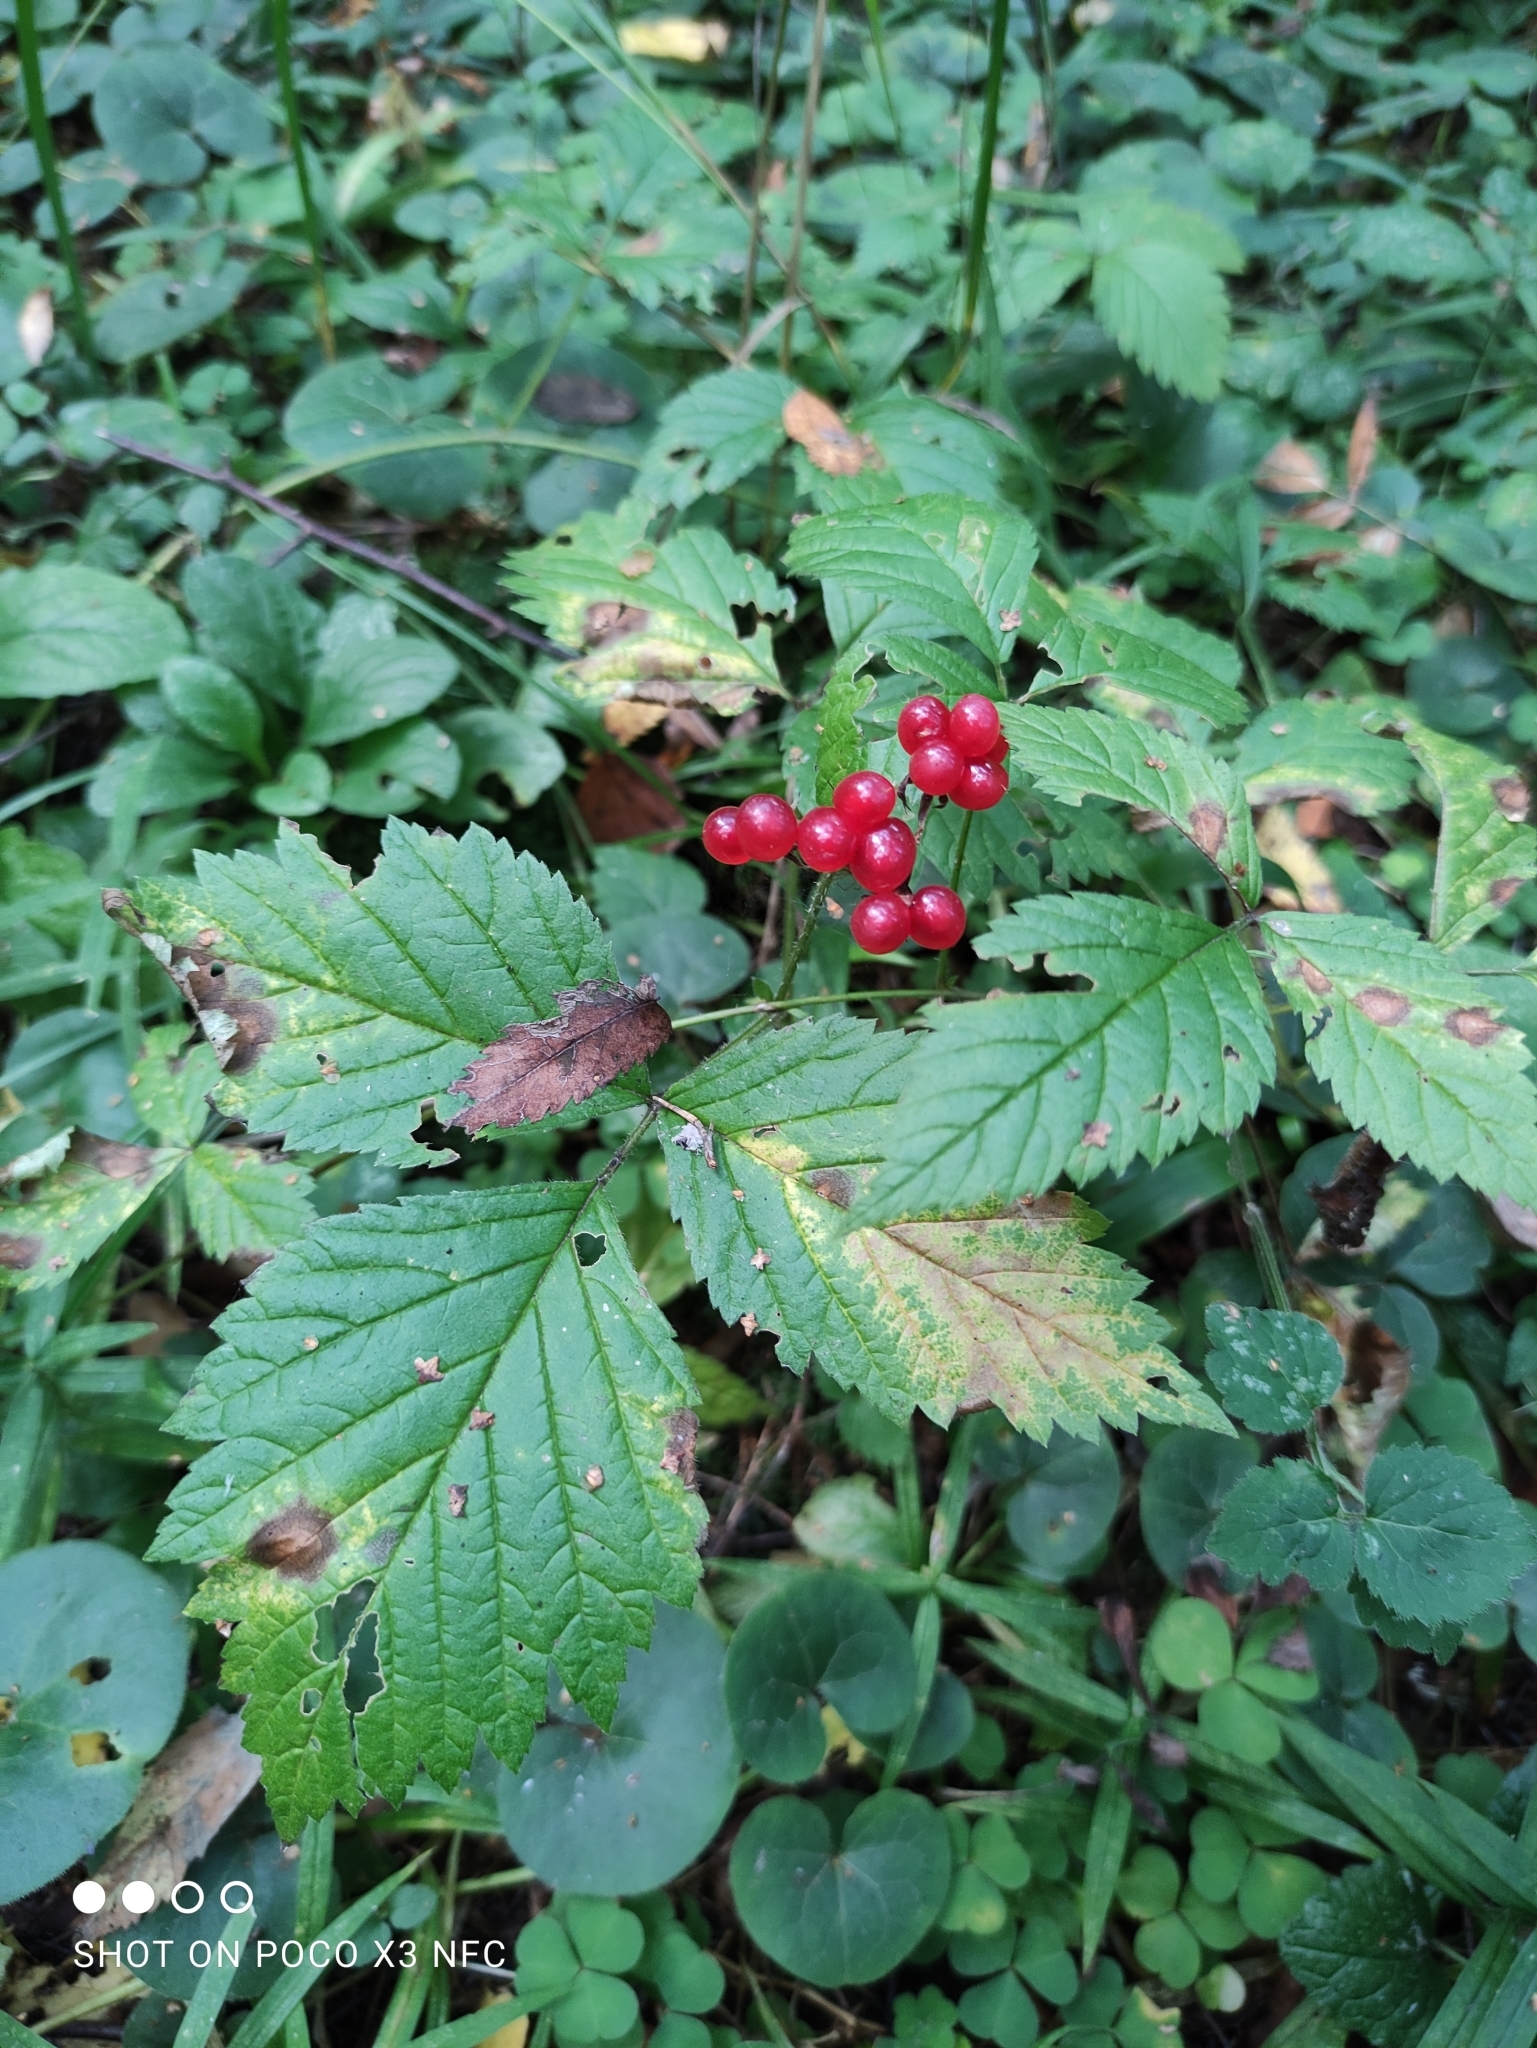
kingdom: Plantae
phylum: Tracheophyta
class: Magnoliopsida
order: Rosales
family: Rosaceae
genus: Rubus
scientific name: Rubus saxatilis
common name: Stone bramble
